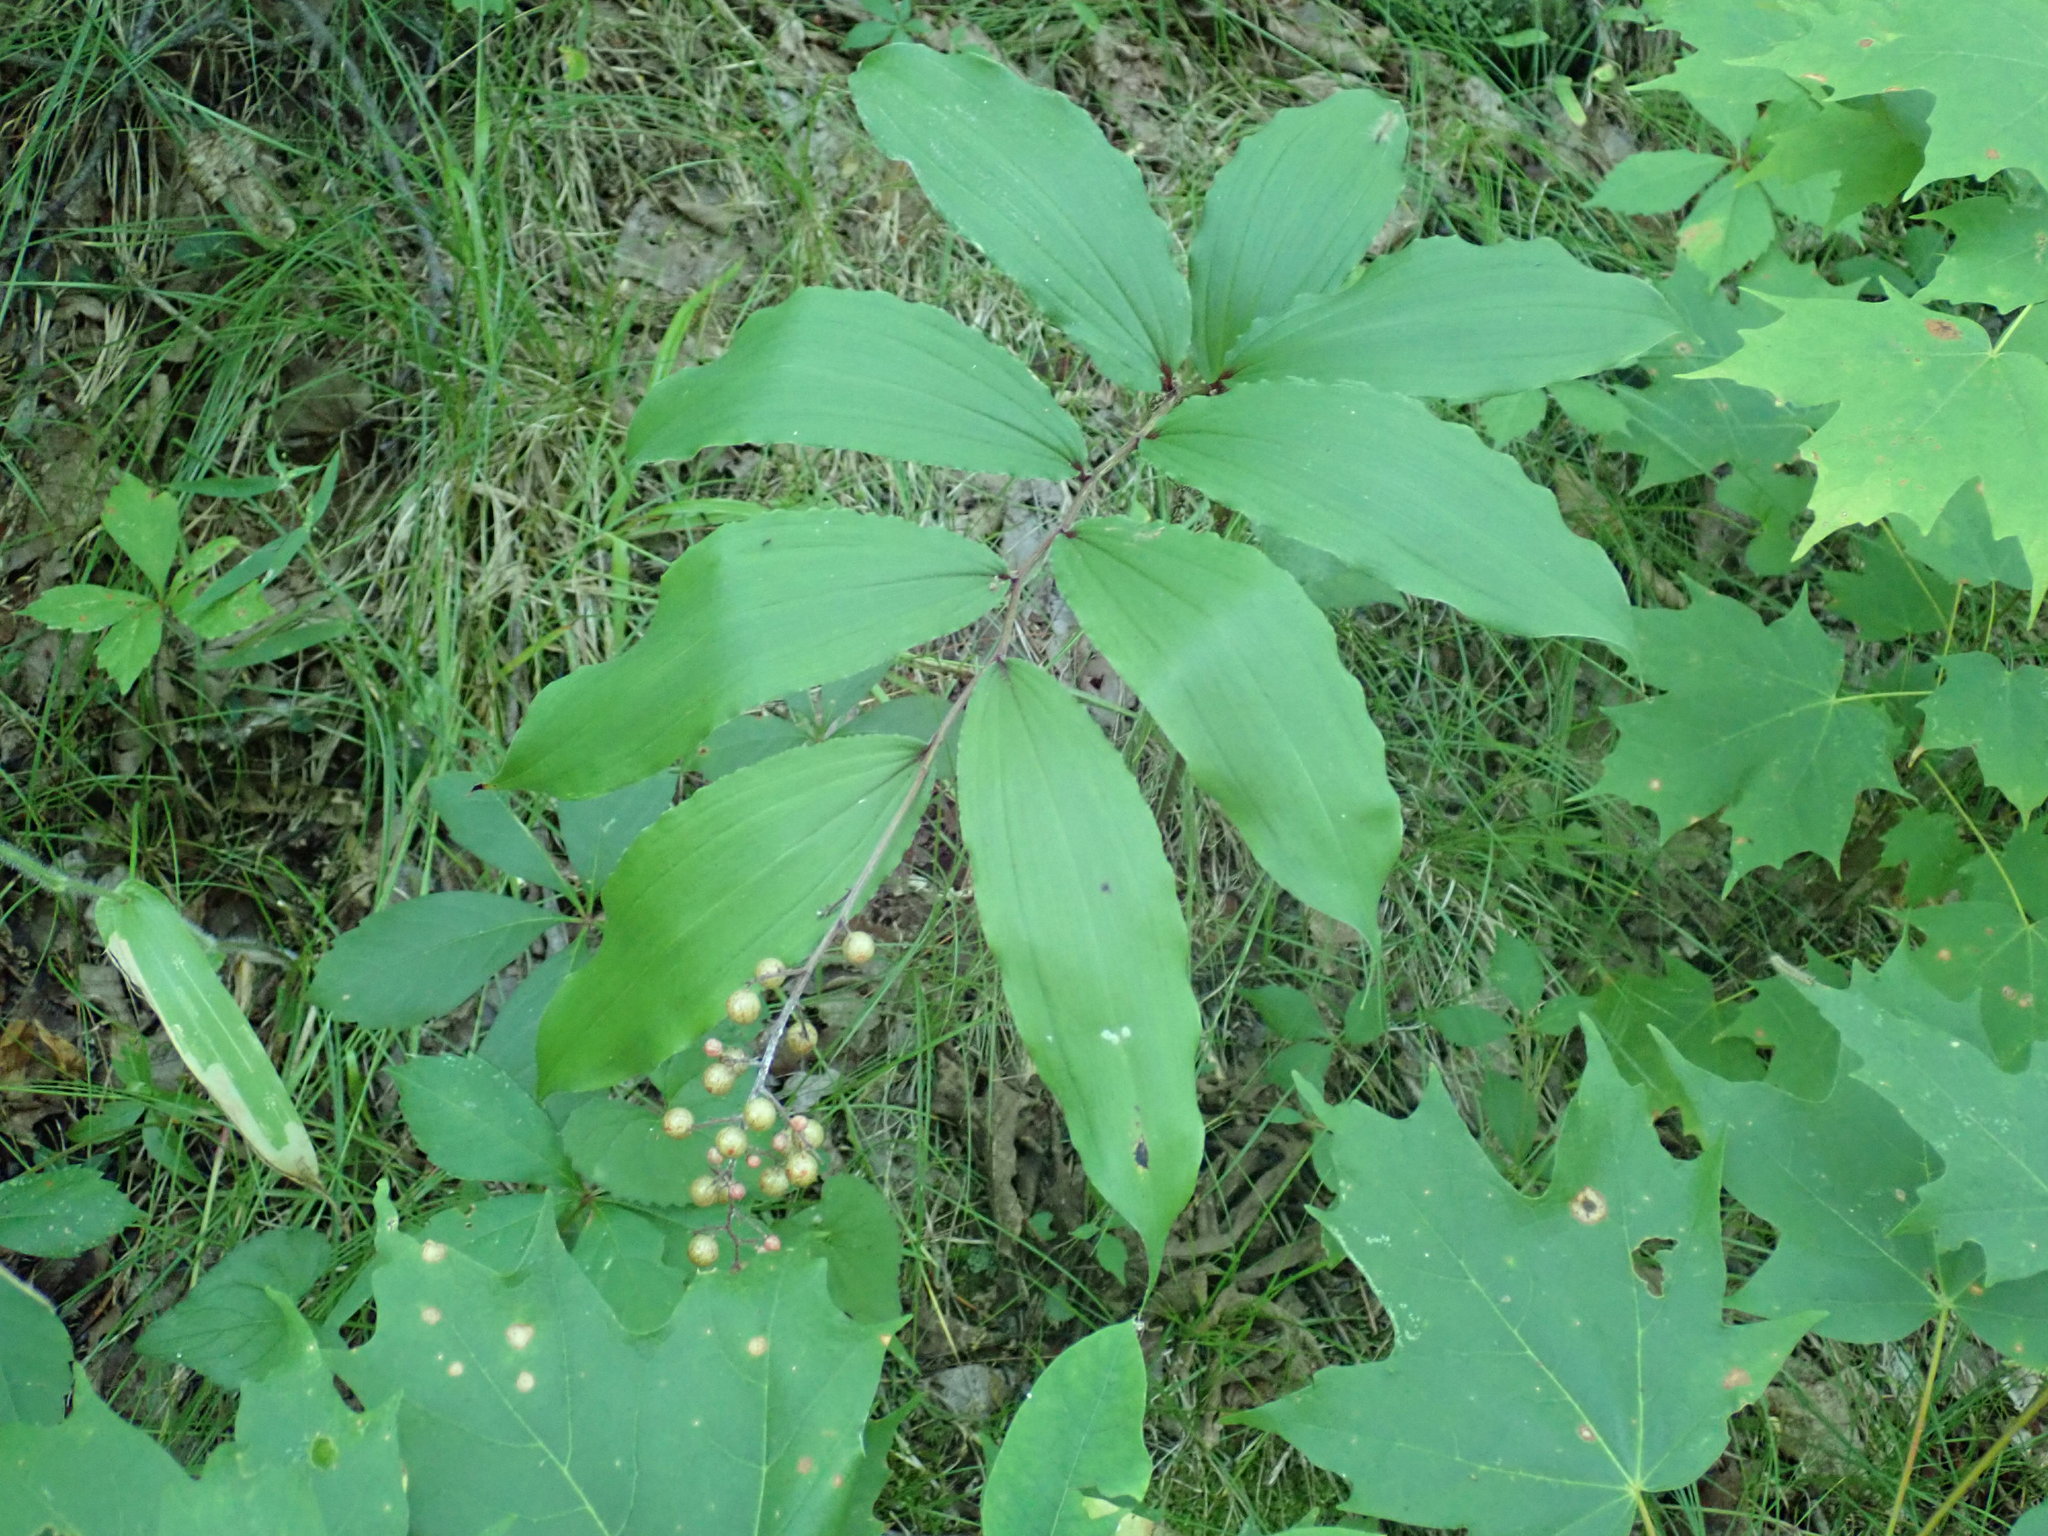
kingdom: Plantae
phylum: Tracheophyta
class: Liliopsida
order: Asparagales
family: Asparagaceae
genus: Maianthemum
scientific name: Maianthemum racemosum
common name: False spikenard
